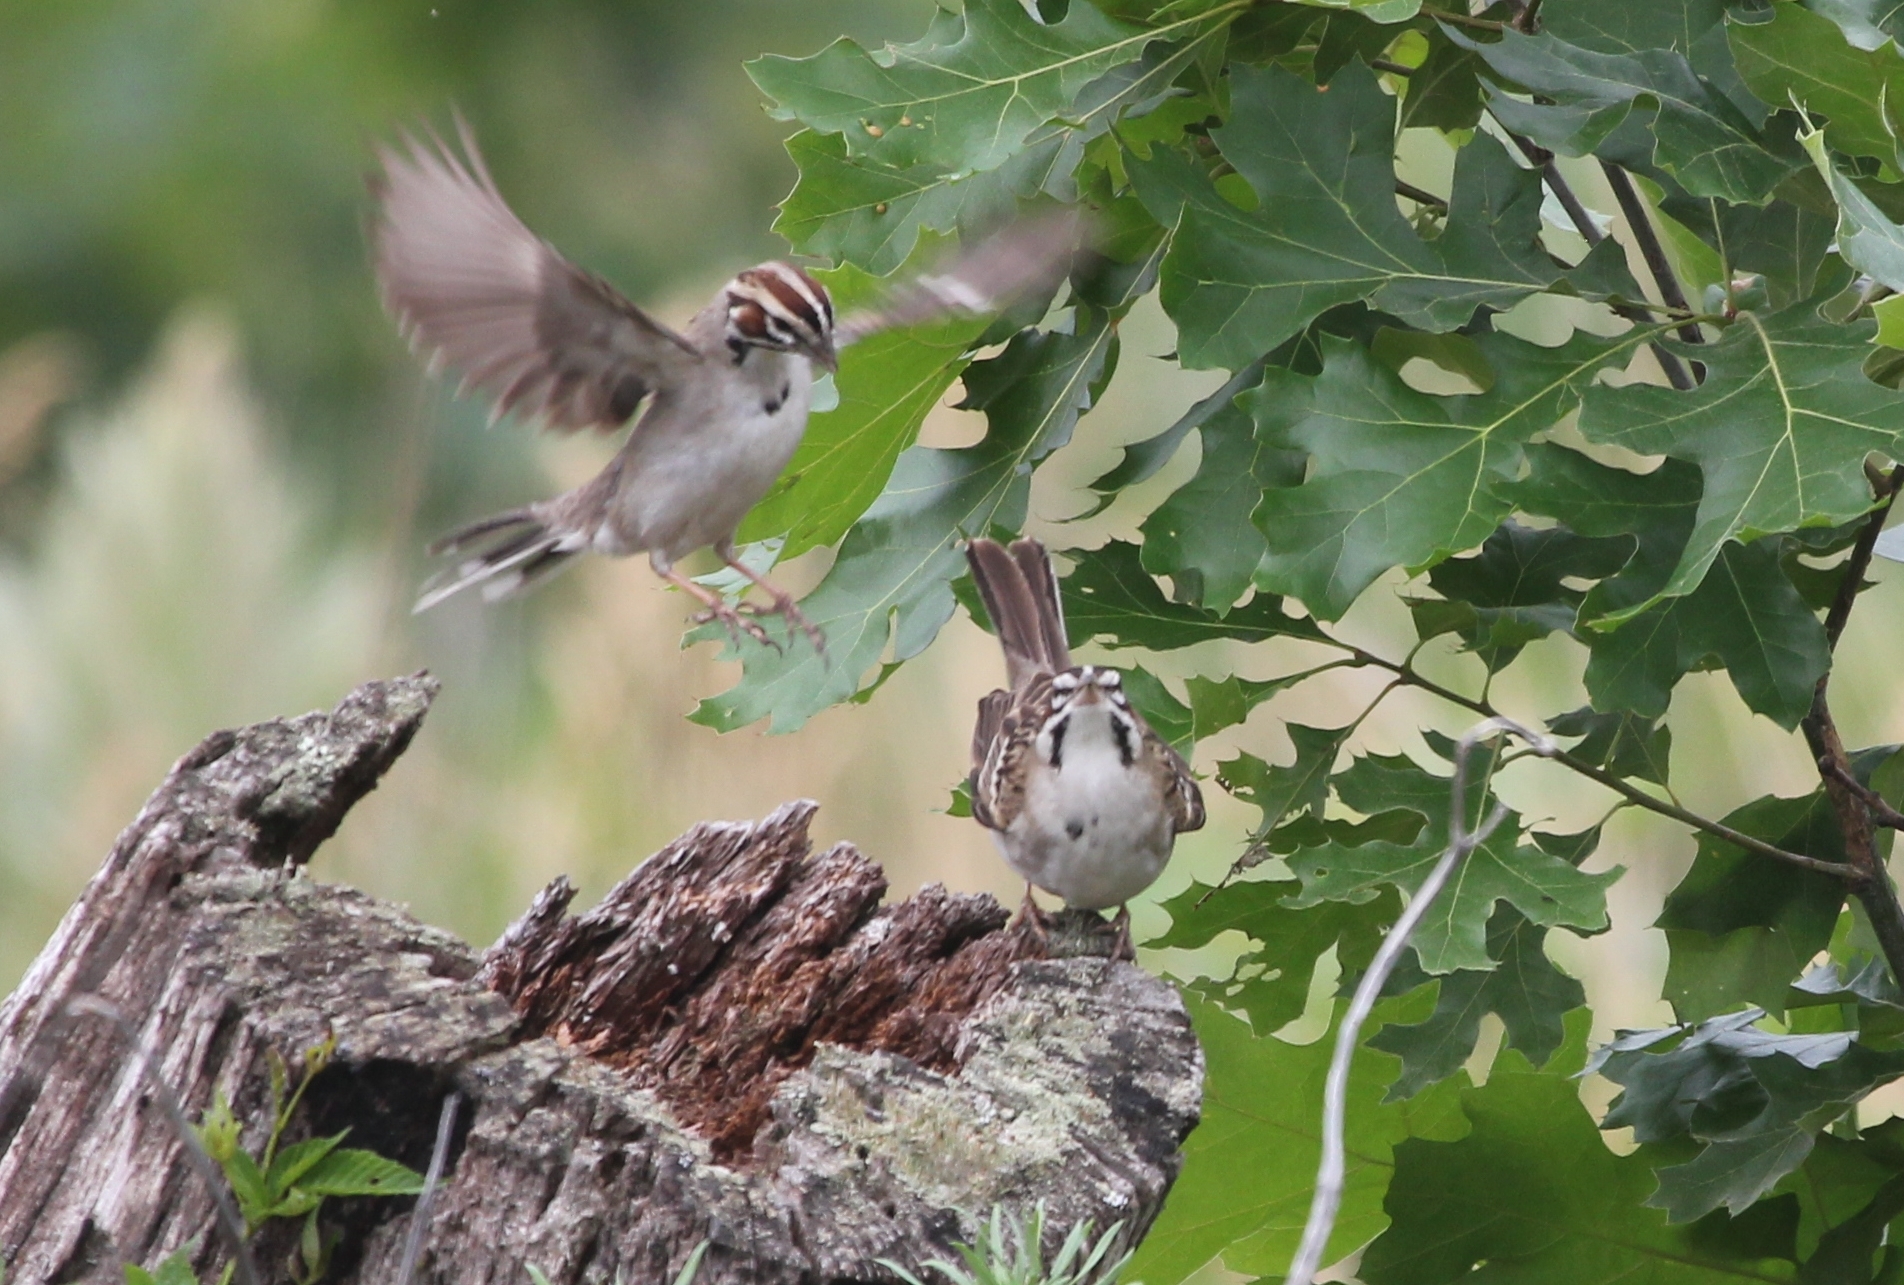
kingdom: Animalia
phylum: Chordata
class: Aves
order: Passeriformes
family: Passerellidae
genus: Chondestes
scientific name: Chondestes grammacus
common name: Lark sparrow
